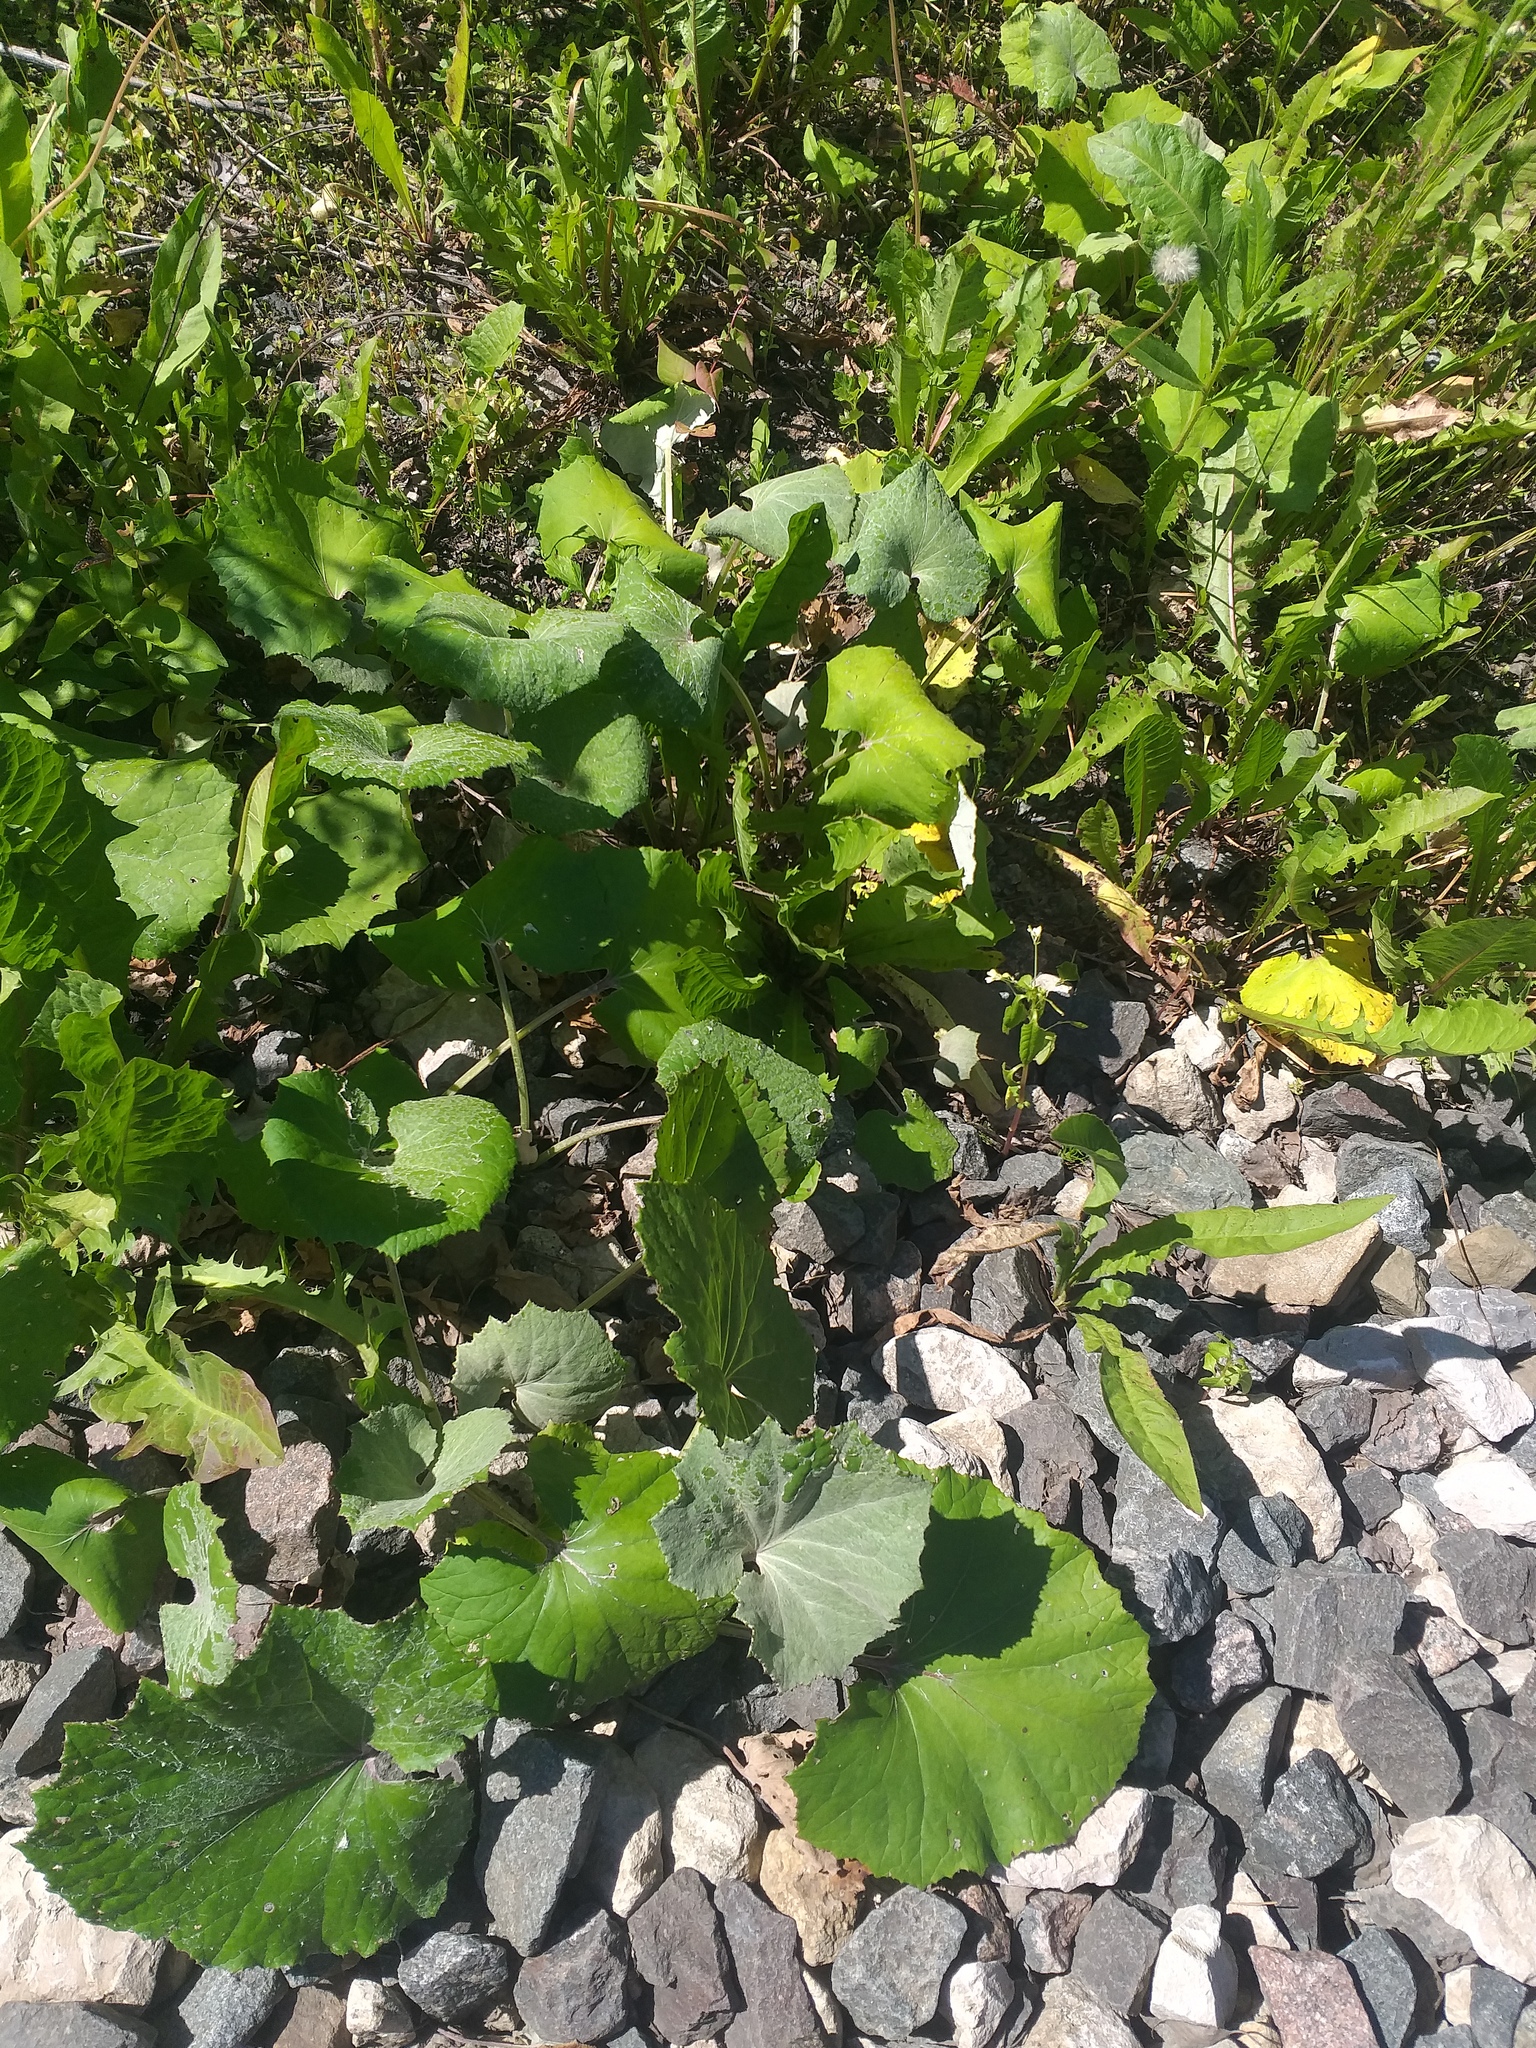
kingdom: Plantae
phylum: Tracheophyta
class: Magnoliopsida
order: Asterales
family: Asteraceae
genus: Tussilago
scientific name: Tussilago farfara
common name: Coltsfoot
